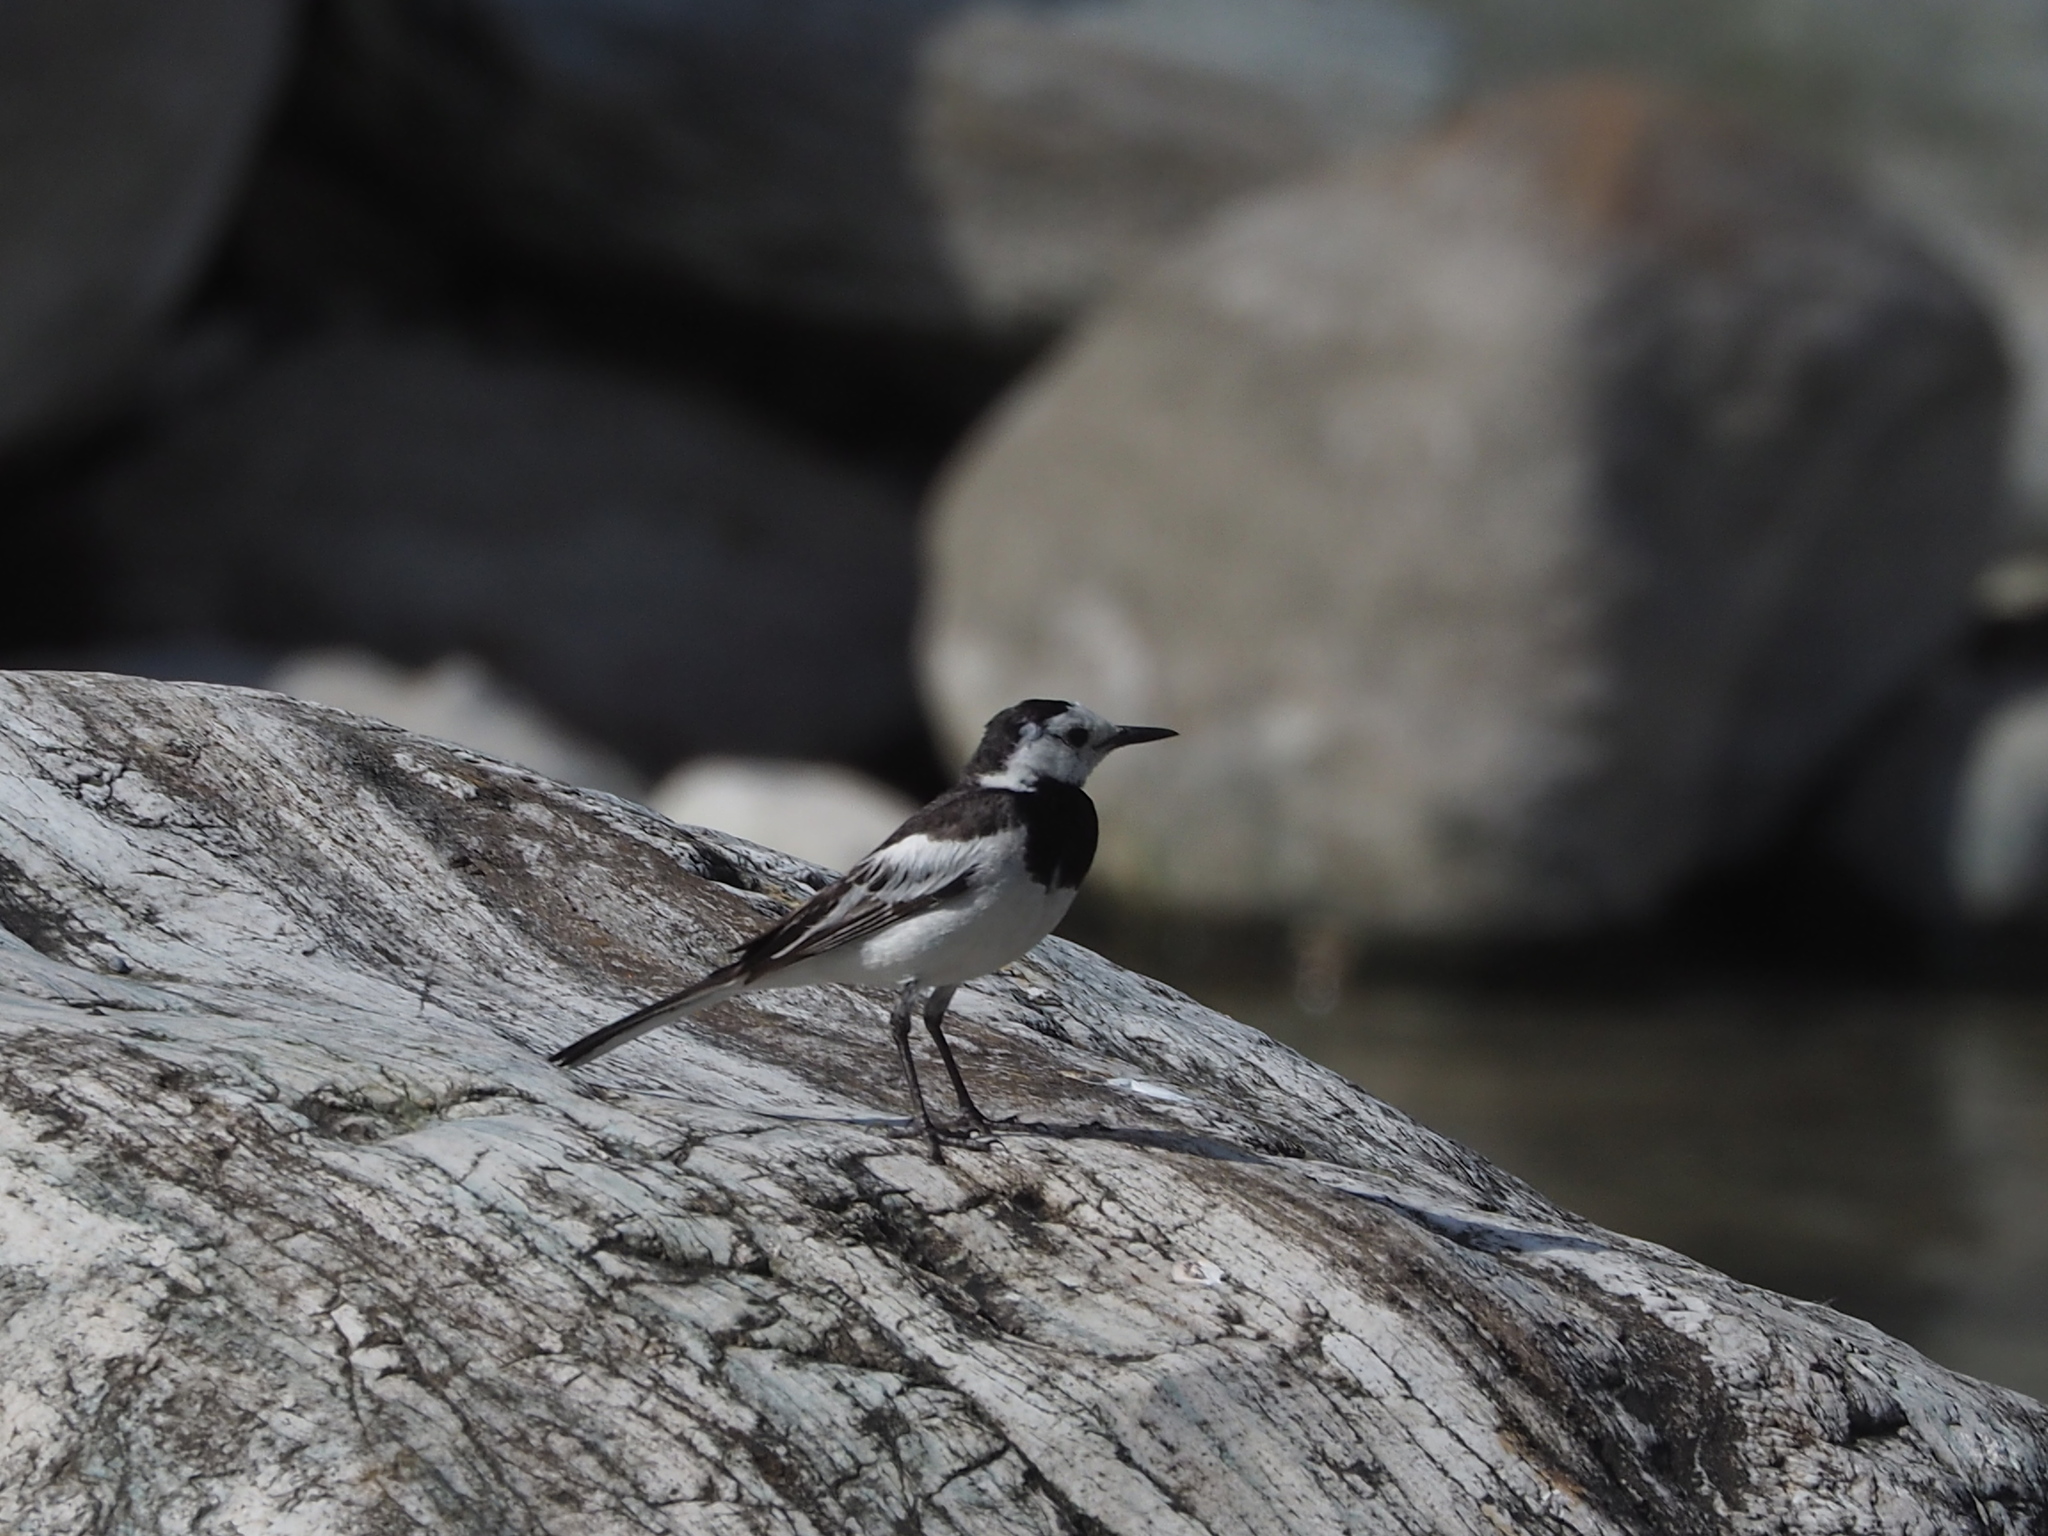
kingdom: Animalia
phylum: Chordata
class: Aves
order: Passeriformes
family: Motacillidae
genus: Motacilla
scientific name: Motacilla alba
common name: White wagtail
